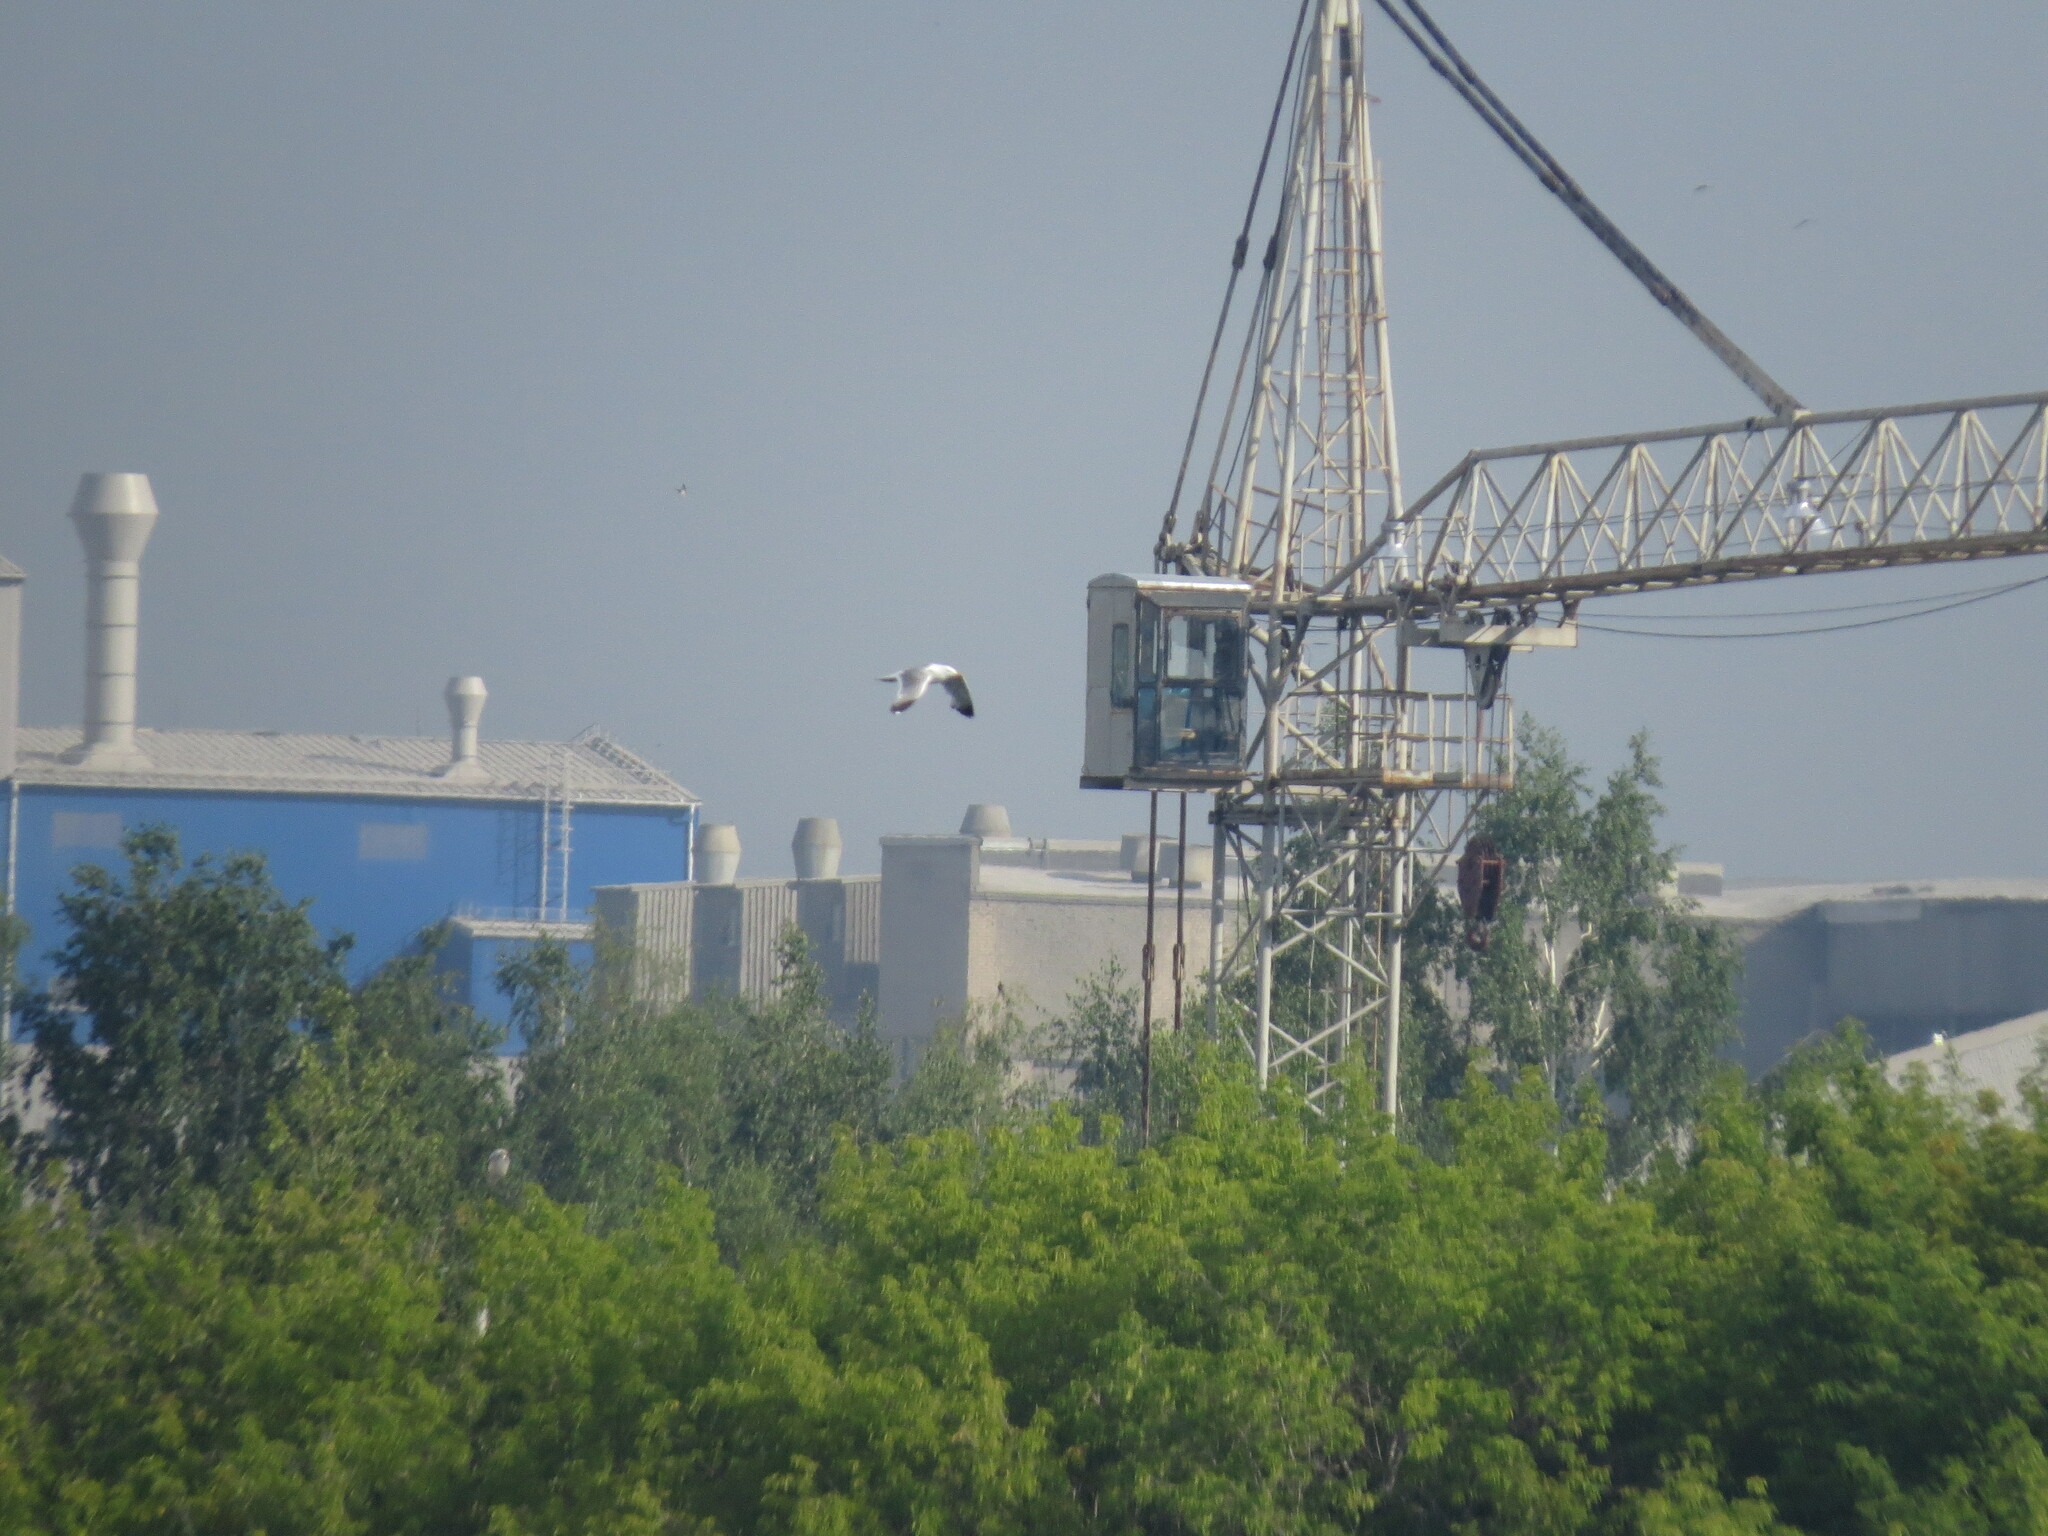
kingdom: Animalia
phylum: Chordata
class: Aves
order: Charadriiformes
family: Laridae
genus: Larus
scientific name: Larus
